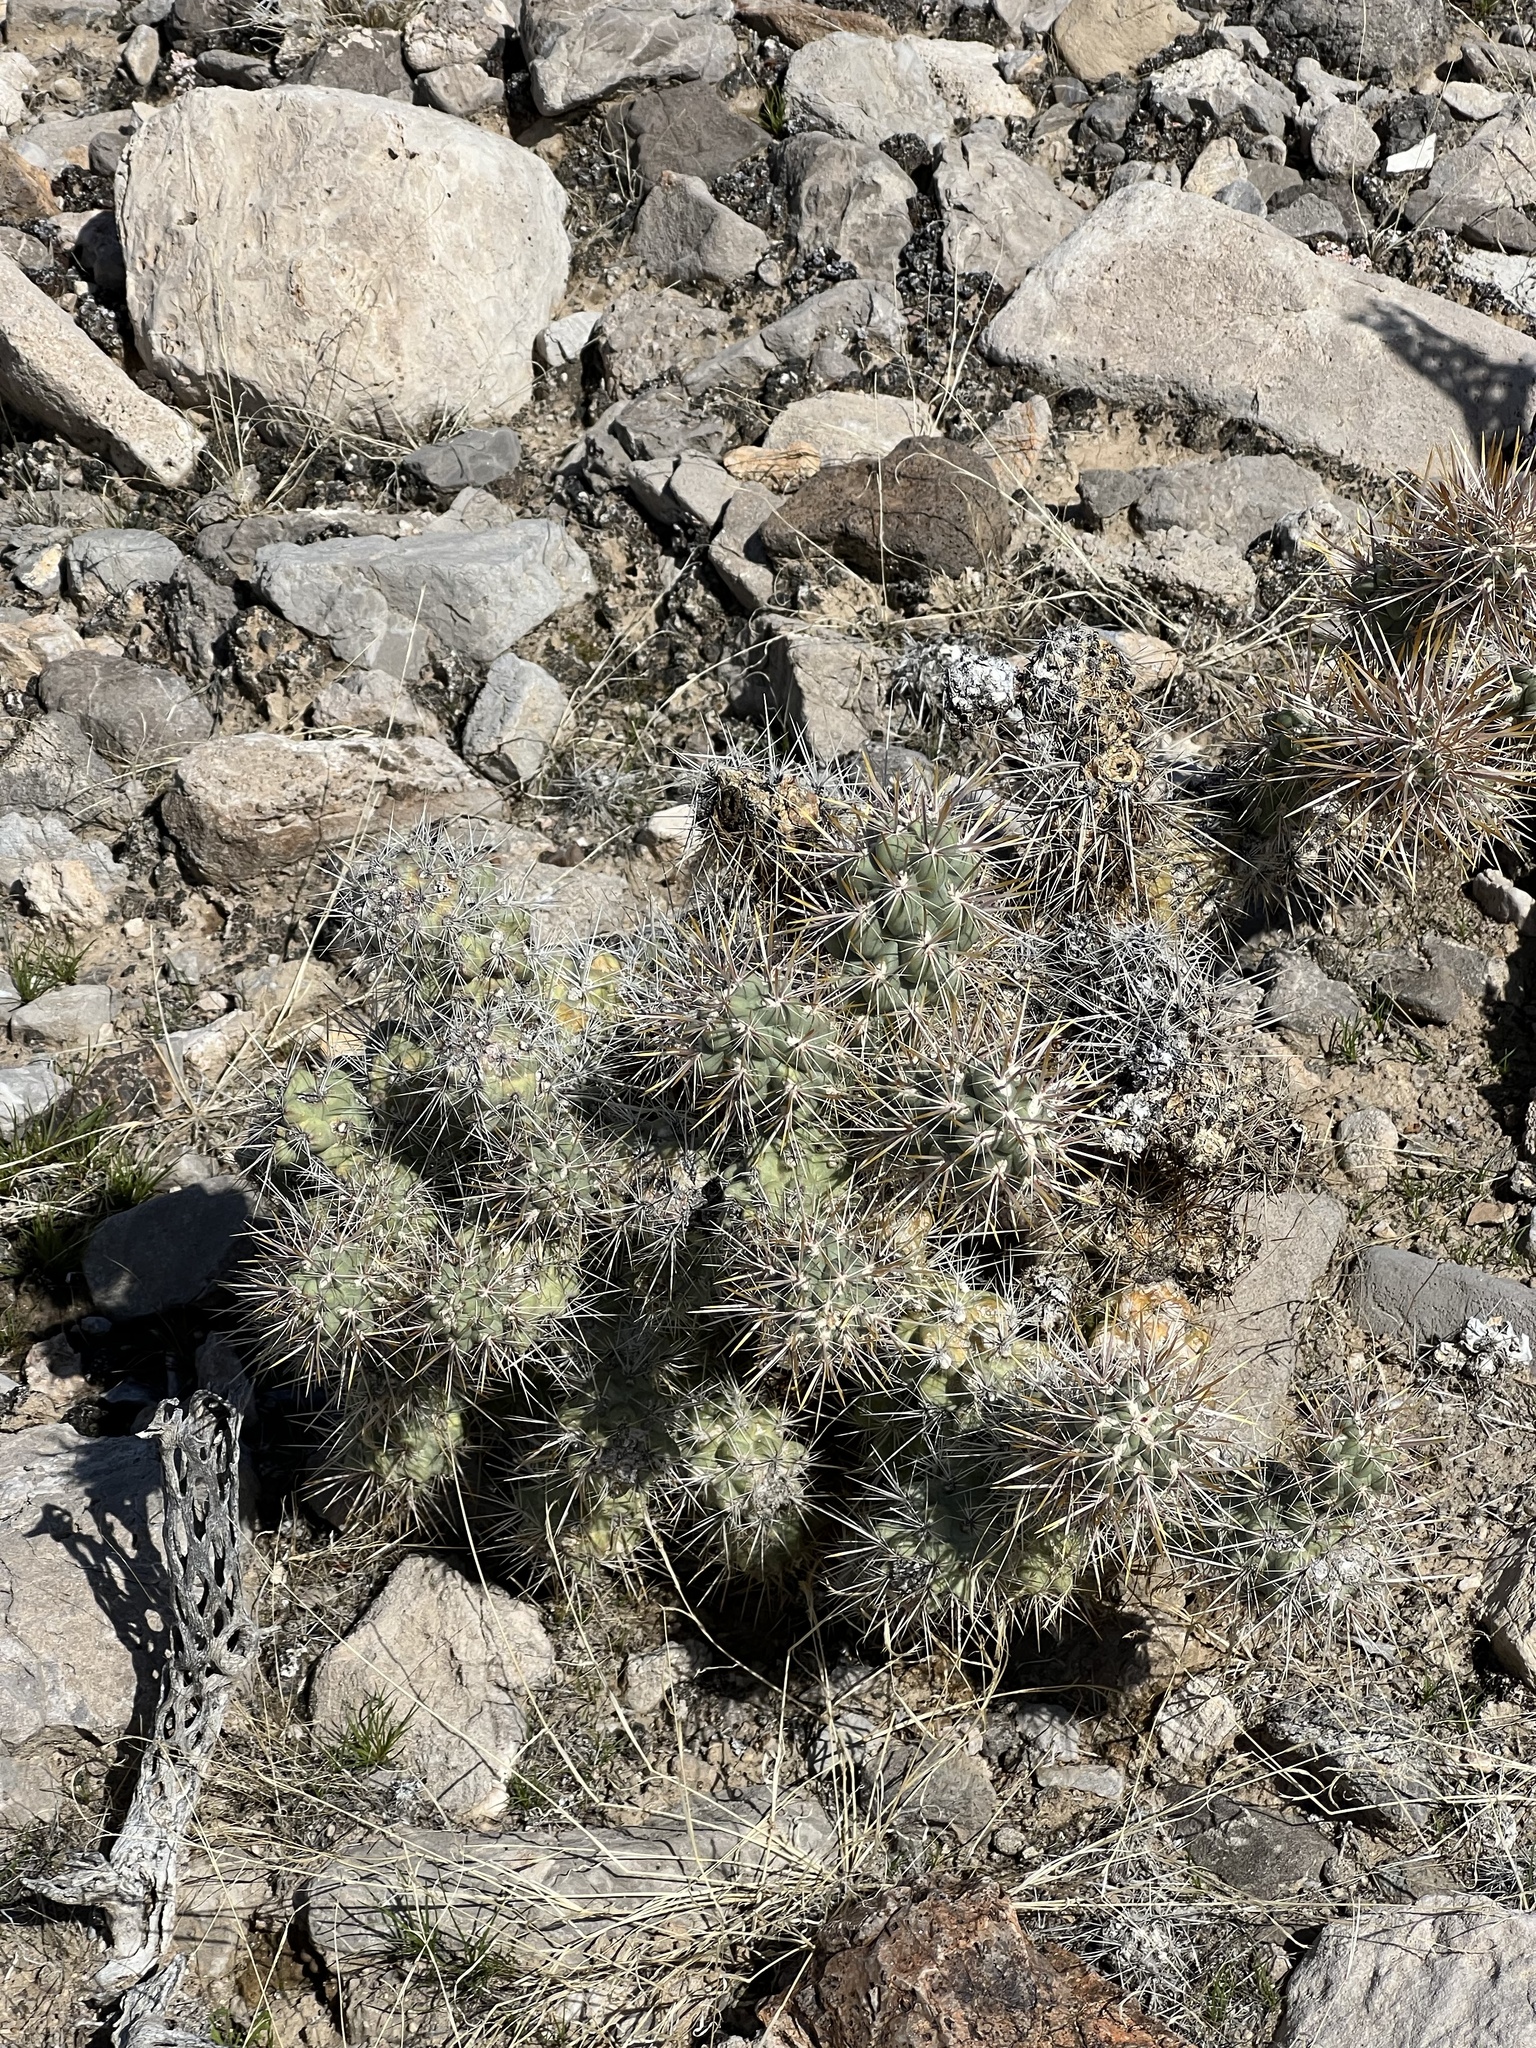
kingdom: Plantae
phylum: Tracheophyta
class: Magnoliopsida
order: Caryophyllales
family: Cactaceae
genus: Cylindropuntia
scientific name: Cylindropuntia echinocarpa
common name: Ground cholla
